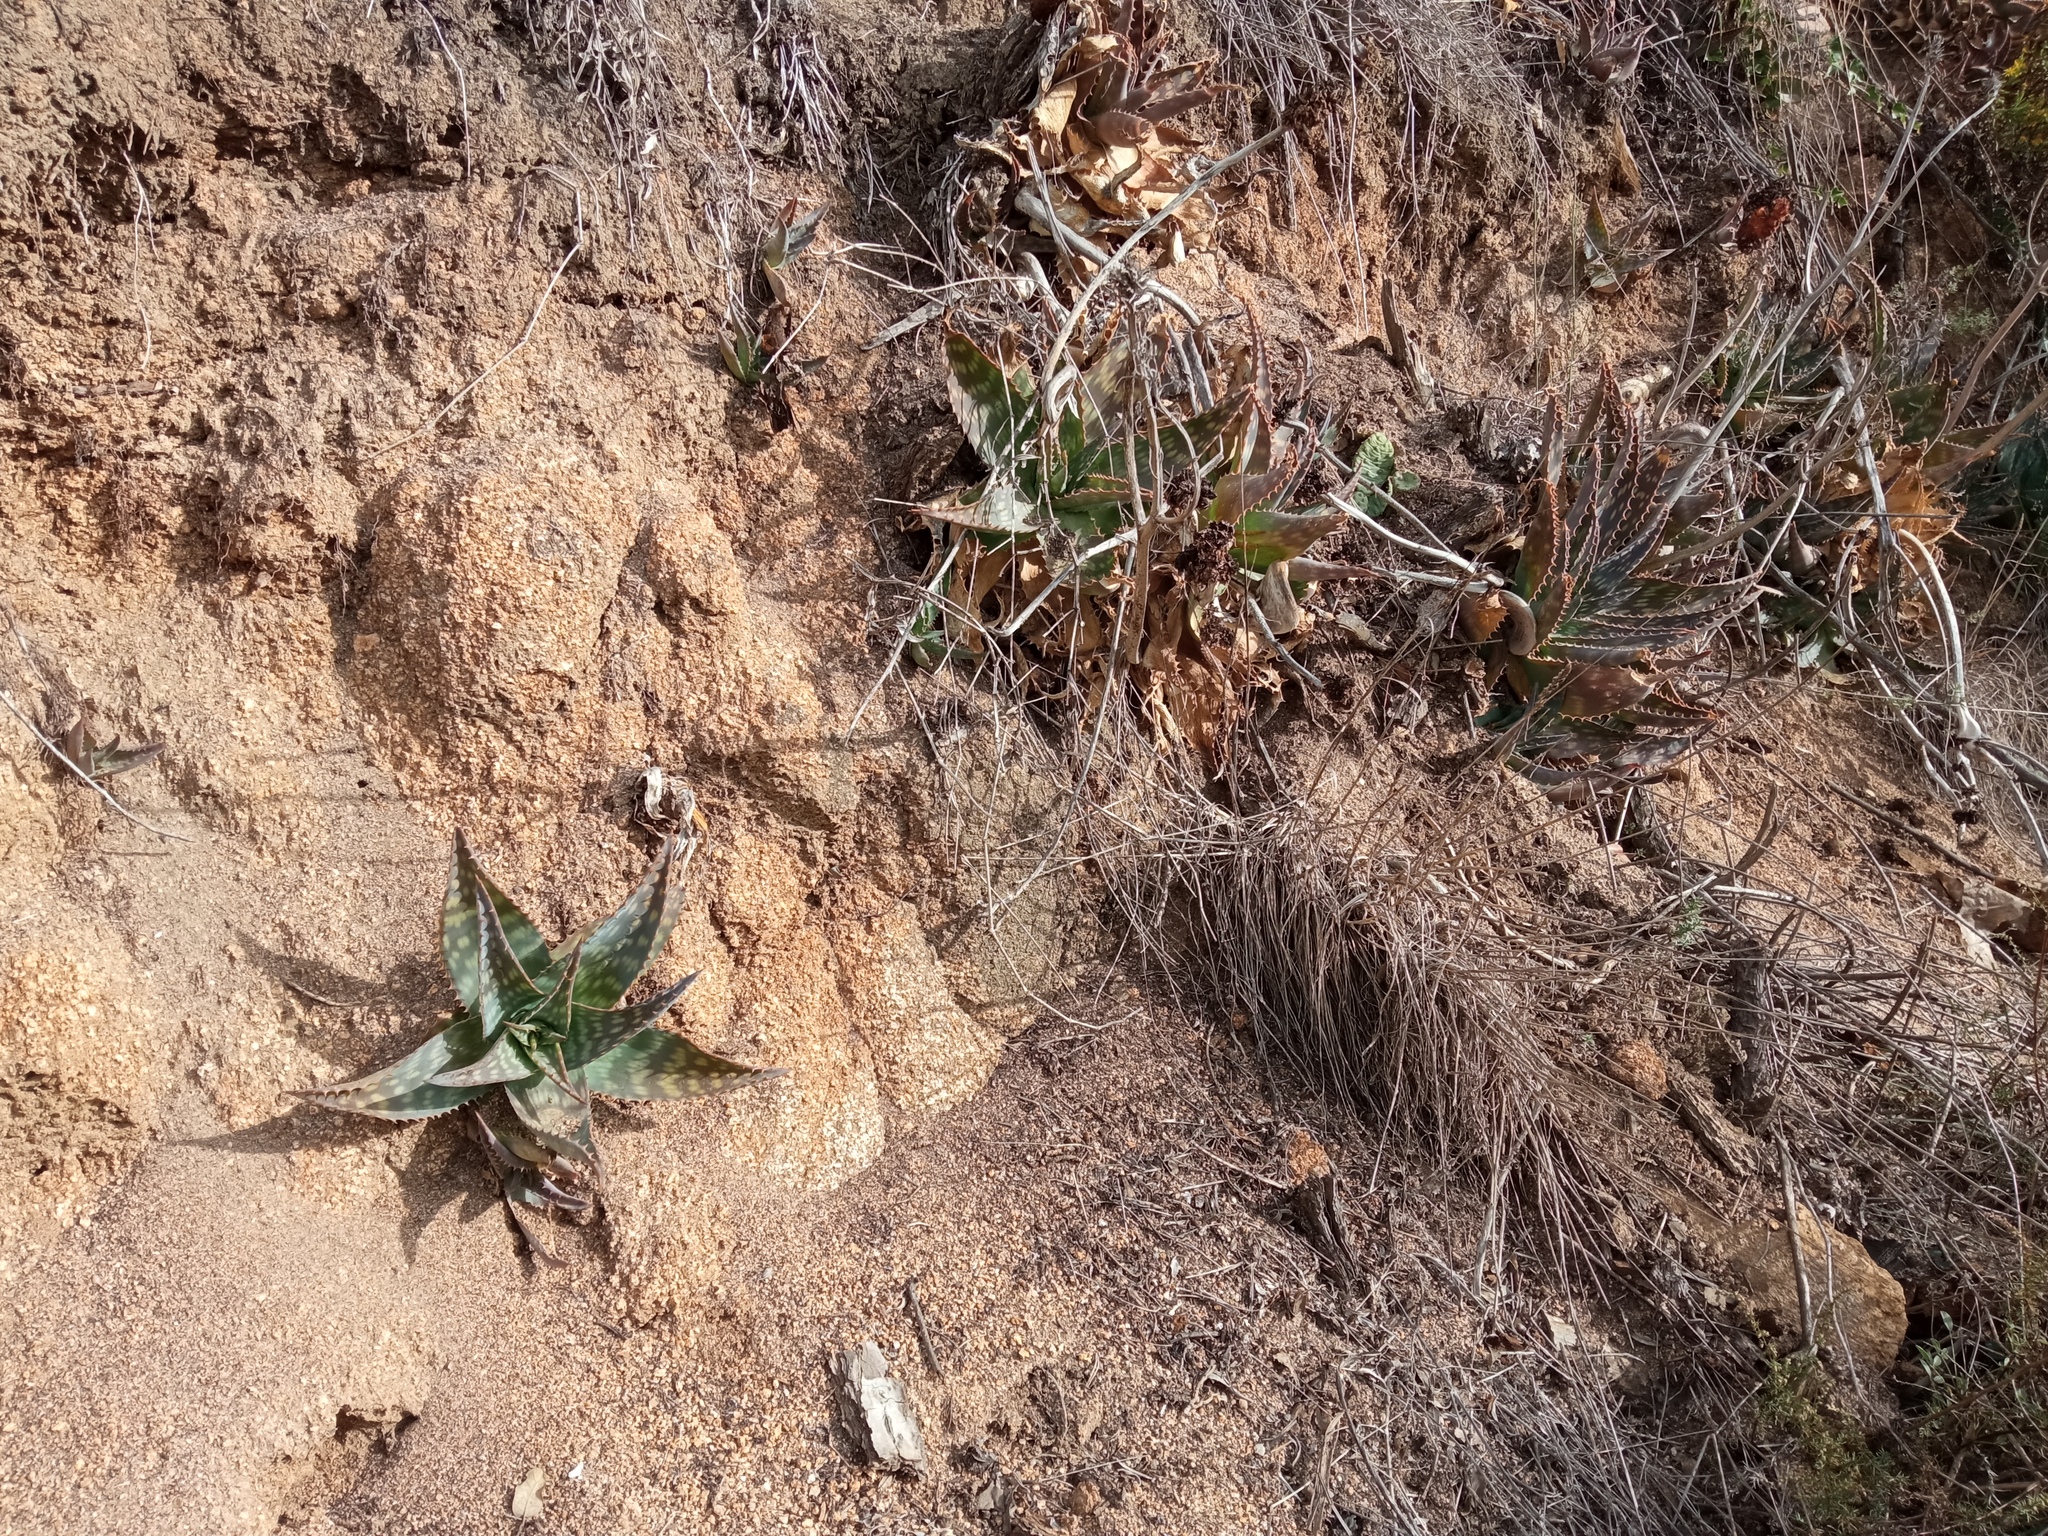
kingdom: Plantae
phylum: Tracheophyta
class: Liliopsida
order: Asparagales
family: Asphodelaceae
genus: Aloe
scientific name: Aloe maculata
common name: Broadleaf aloe
